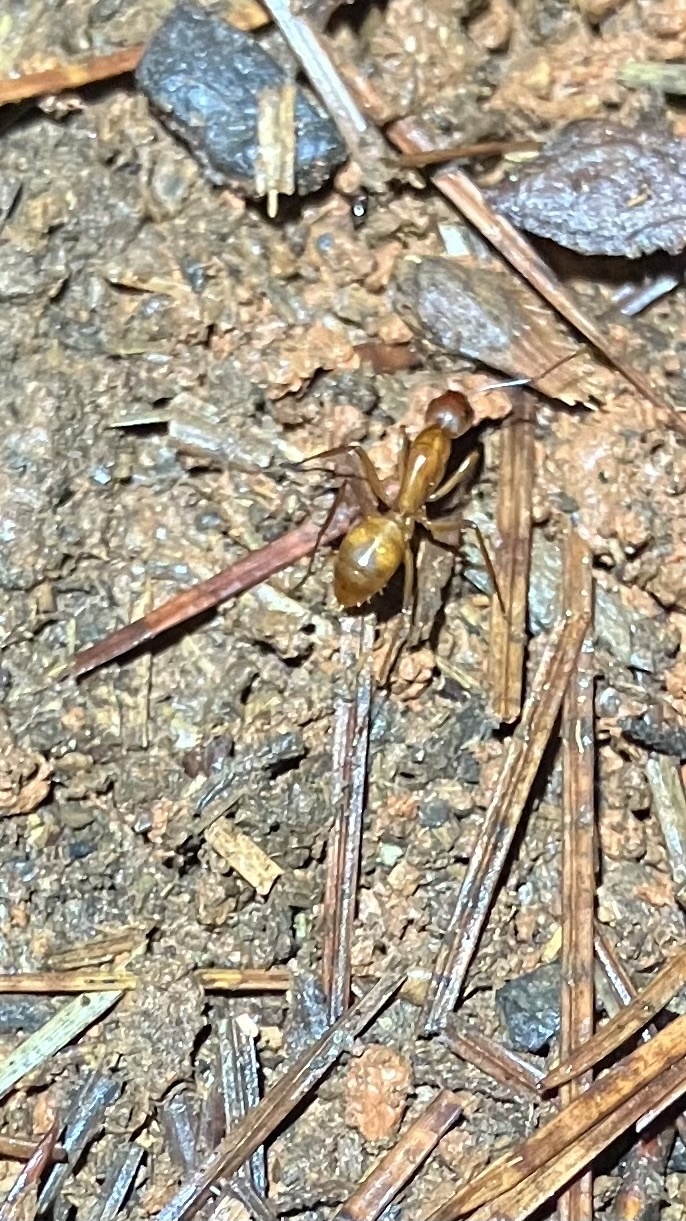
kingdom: Animalia
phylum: Arthropoda
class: Insecta
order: Hymenoptera
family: Formicidae
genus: Camponotus
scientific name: Camponotus castaneus
